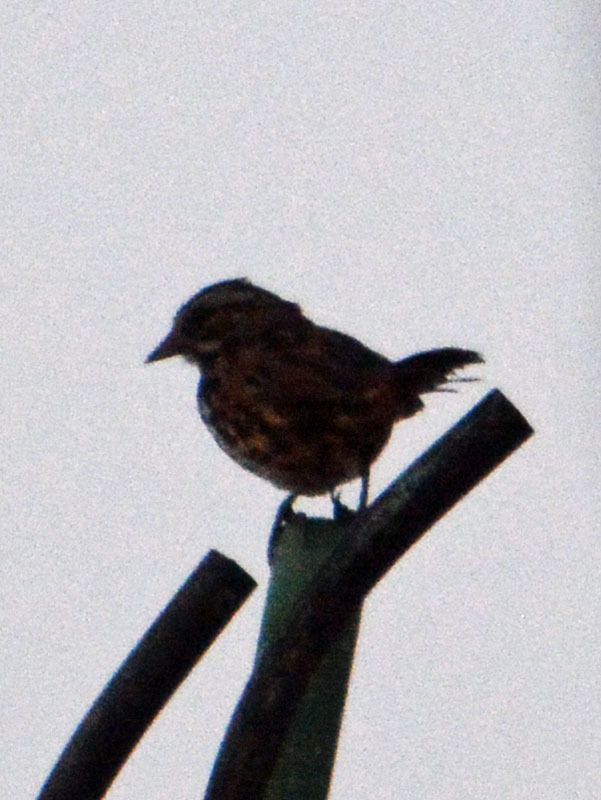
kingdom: Animalia
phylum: Chordata
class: Aves
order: Passeriformes
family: Passerellidae
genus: Melospiza
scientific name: Melospiza melodia
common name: Song sparrow
